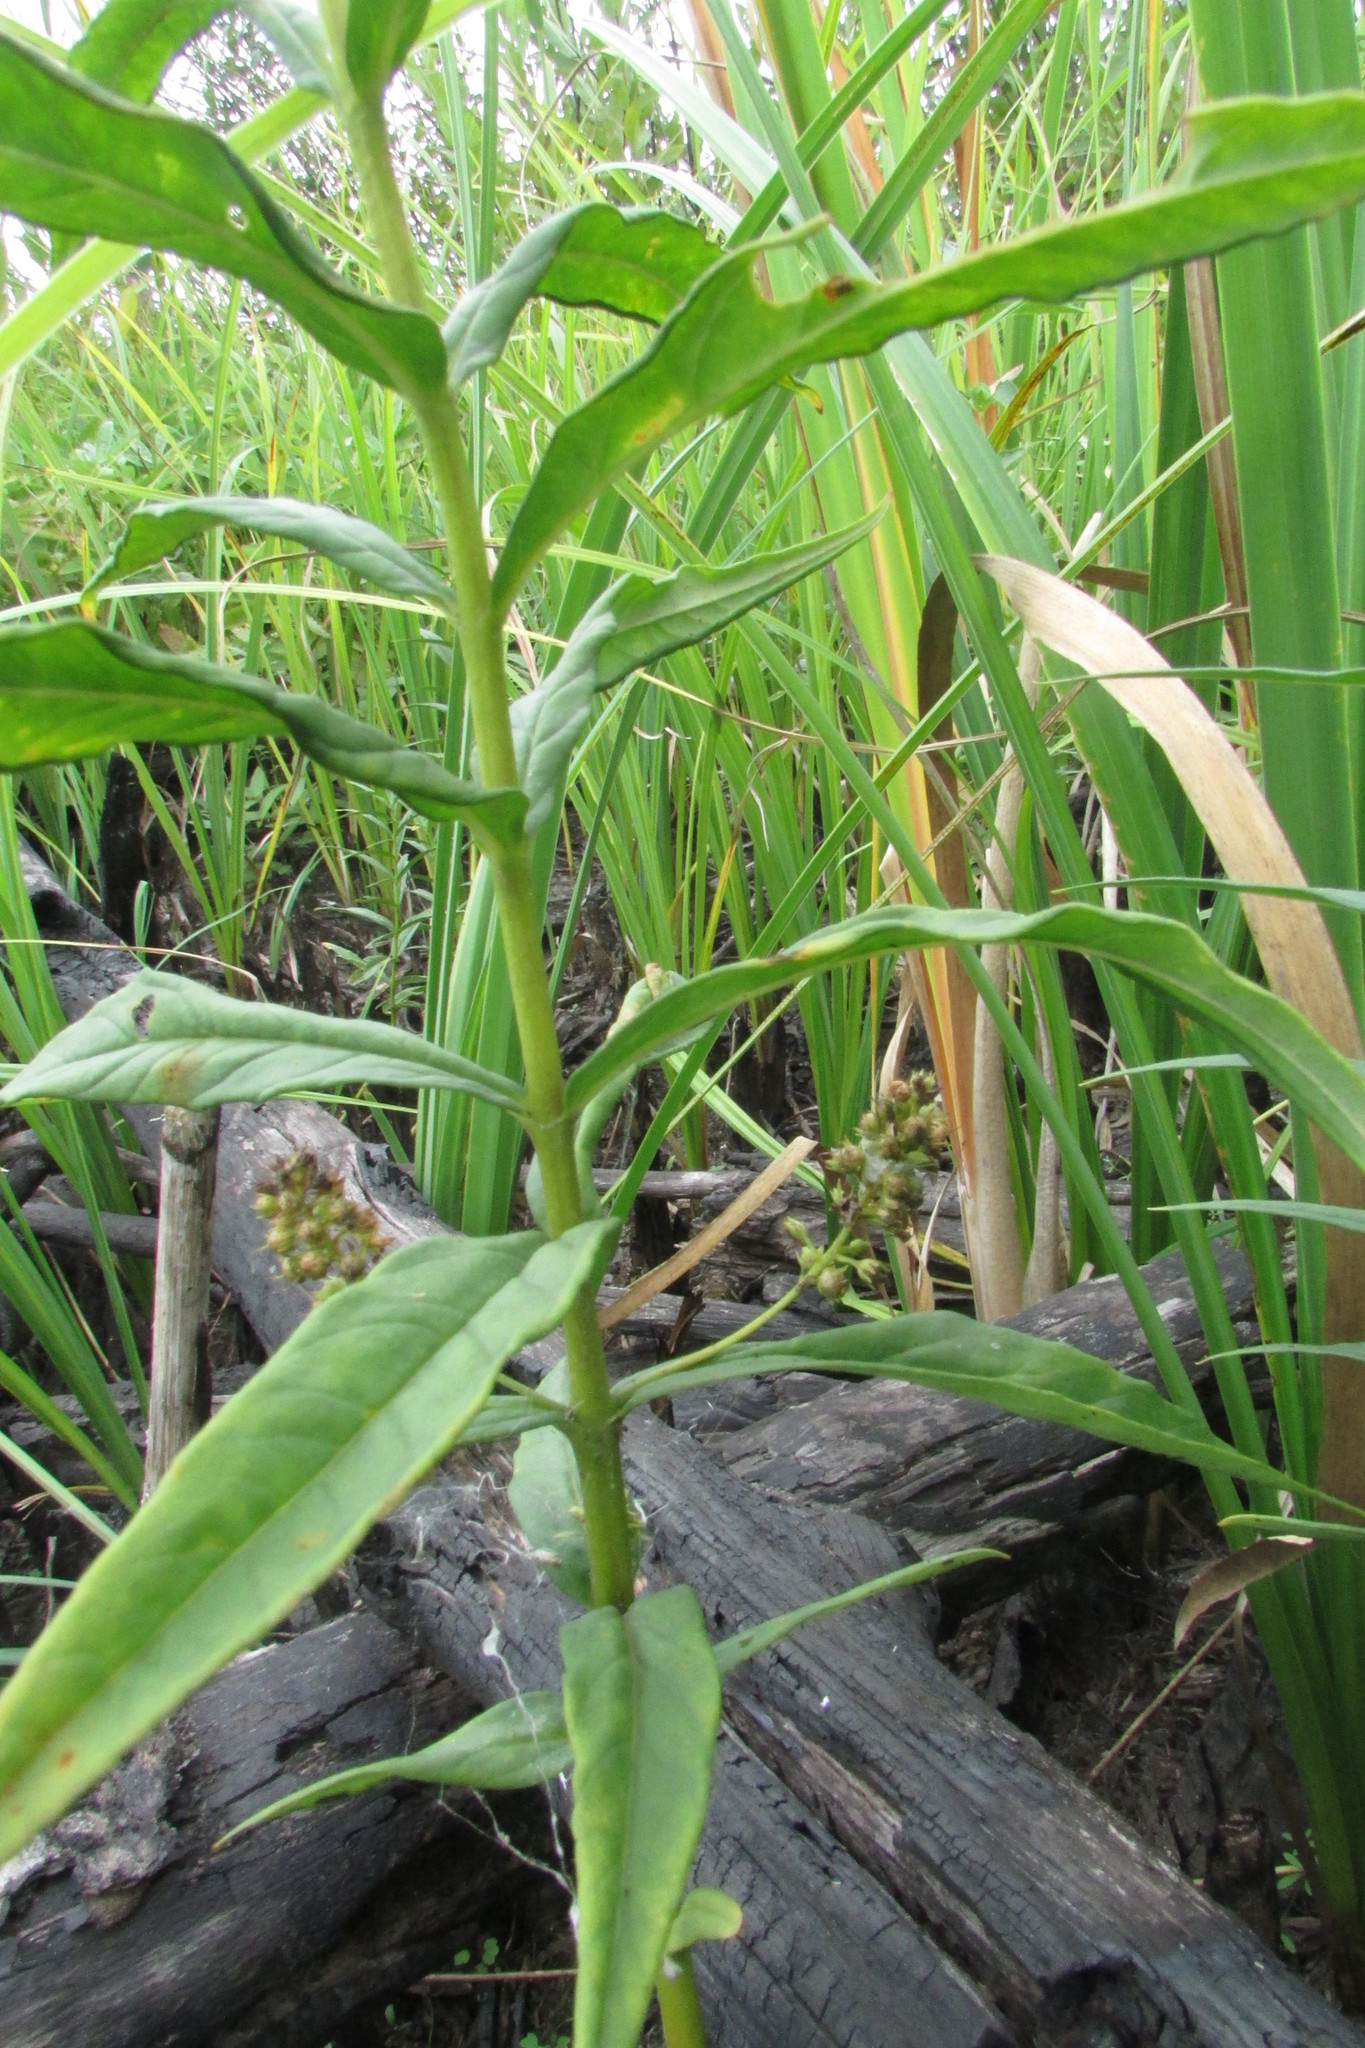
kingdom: Plantae
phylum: Tracheophyta
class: Magnoliopsida
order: Ericales
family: Primulaceae
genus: Lysimachia
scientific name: Lysimachia thyrsiflora
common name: Tufted loosestrife
